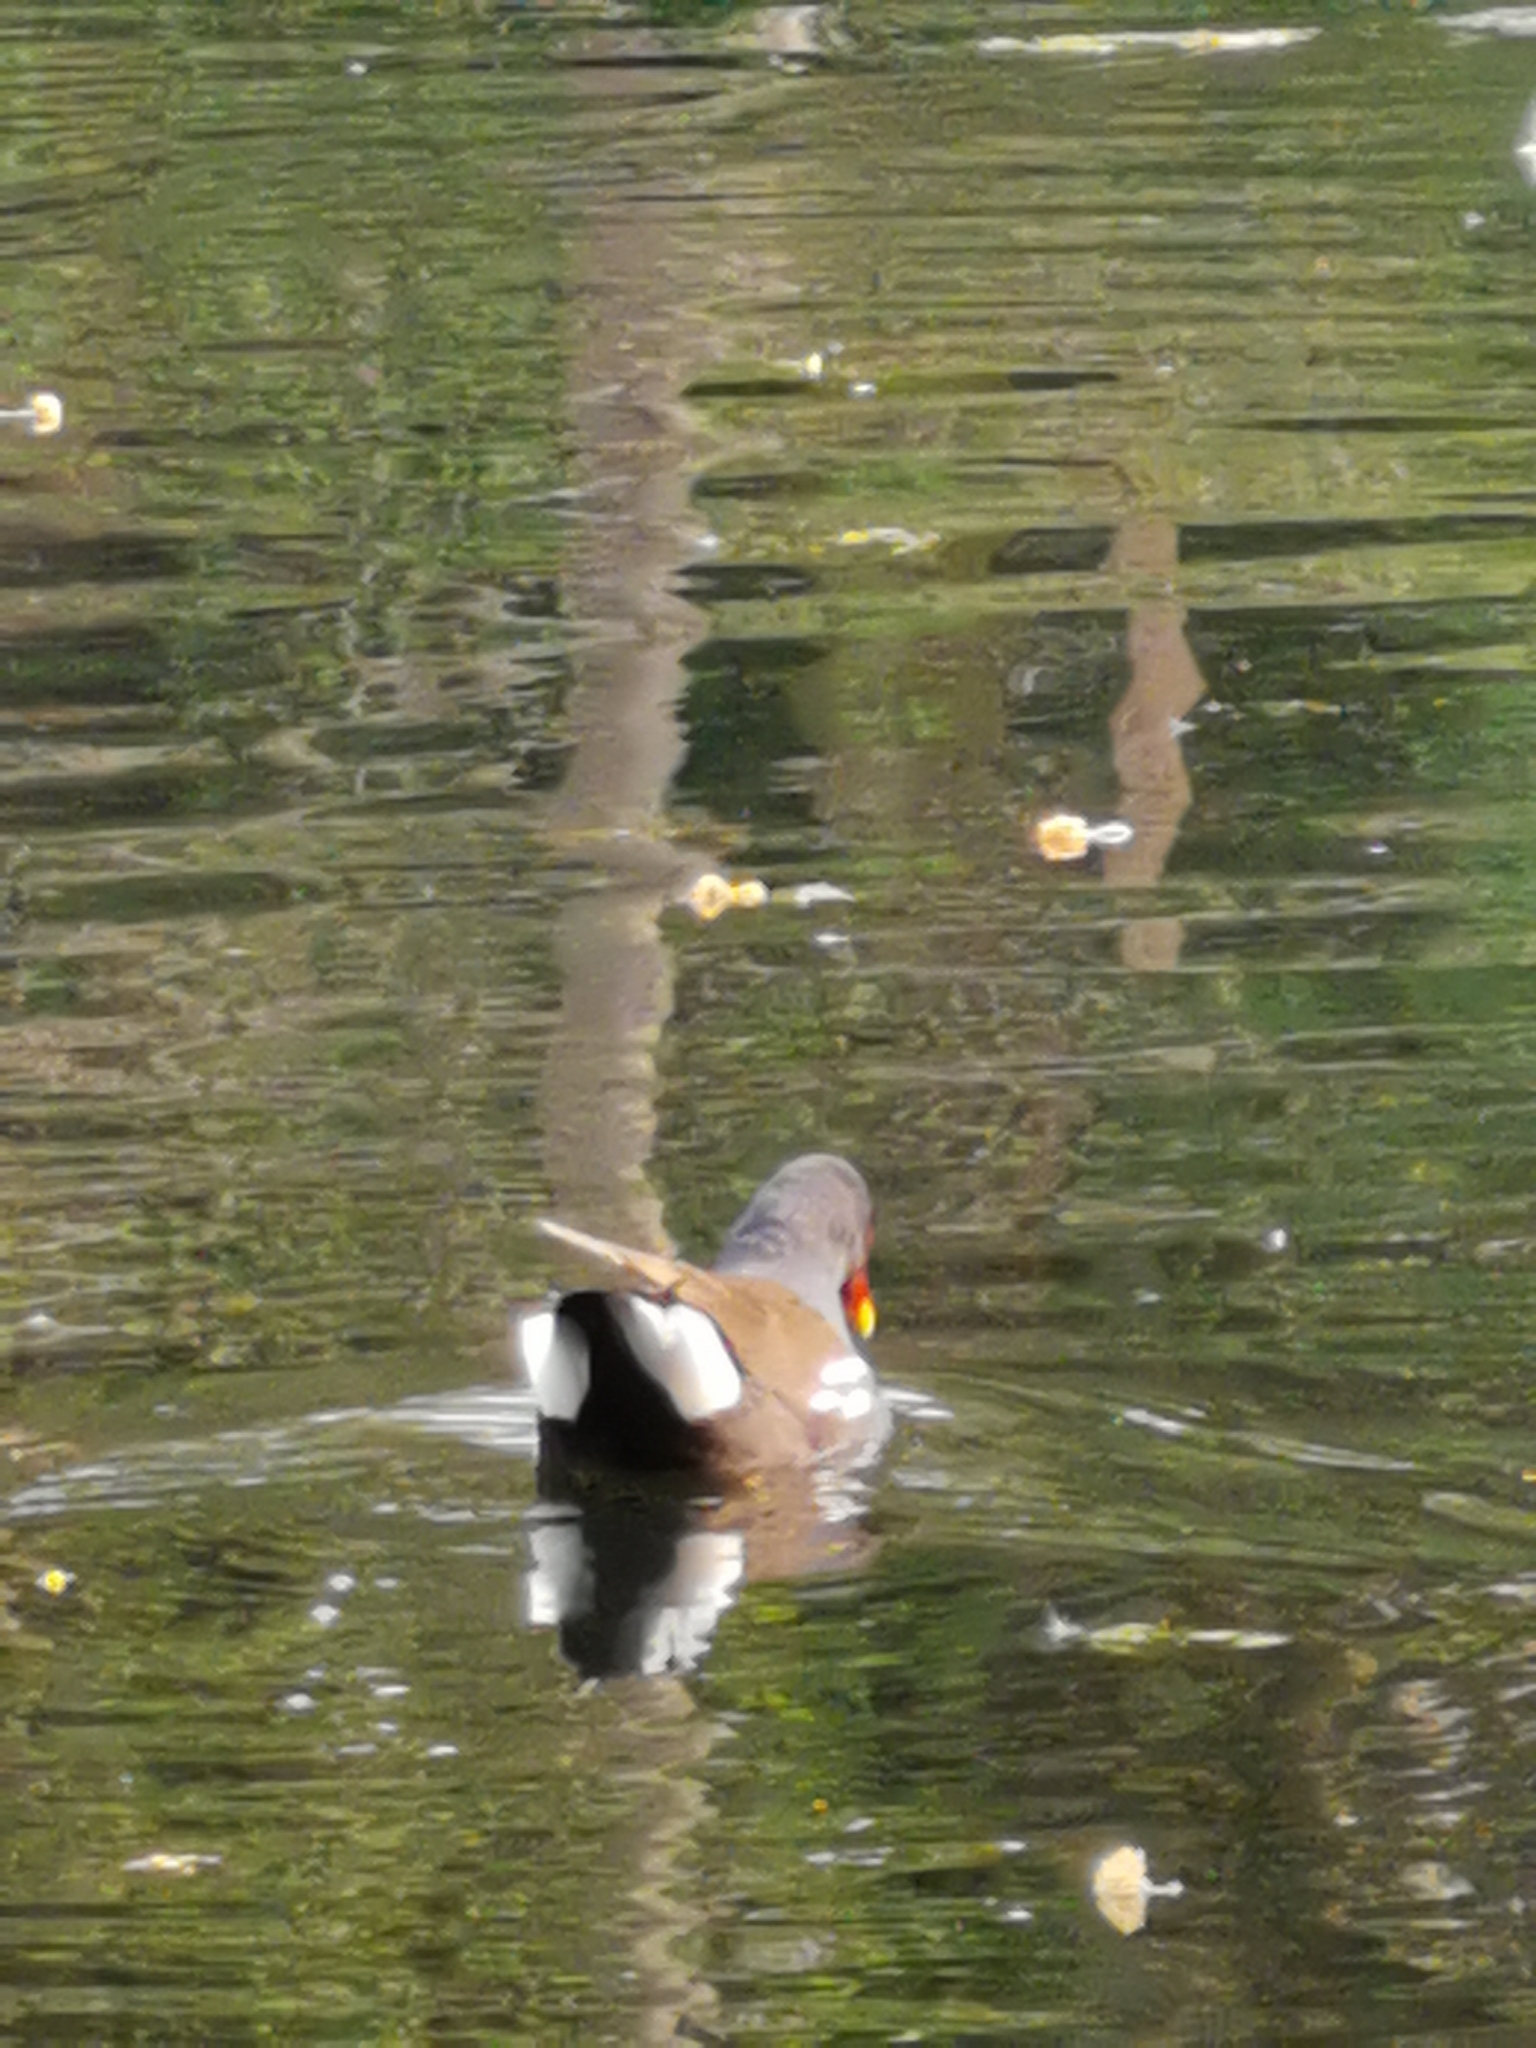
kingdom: Animalia
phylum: Chordata
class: Aves
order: Gruiformes
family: Rallidae
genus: Gallinula
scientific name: Gallinula chloropus
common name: Common moorhen
